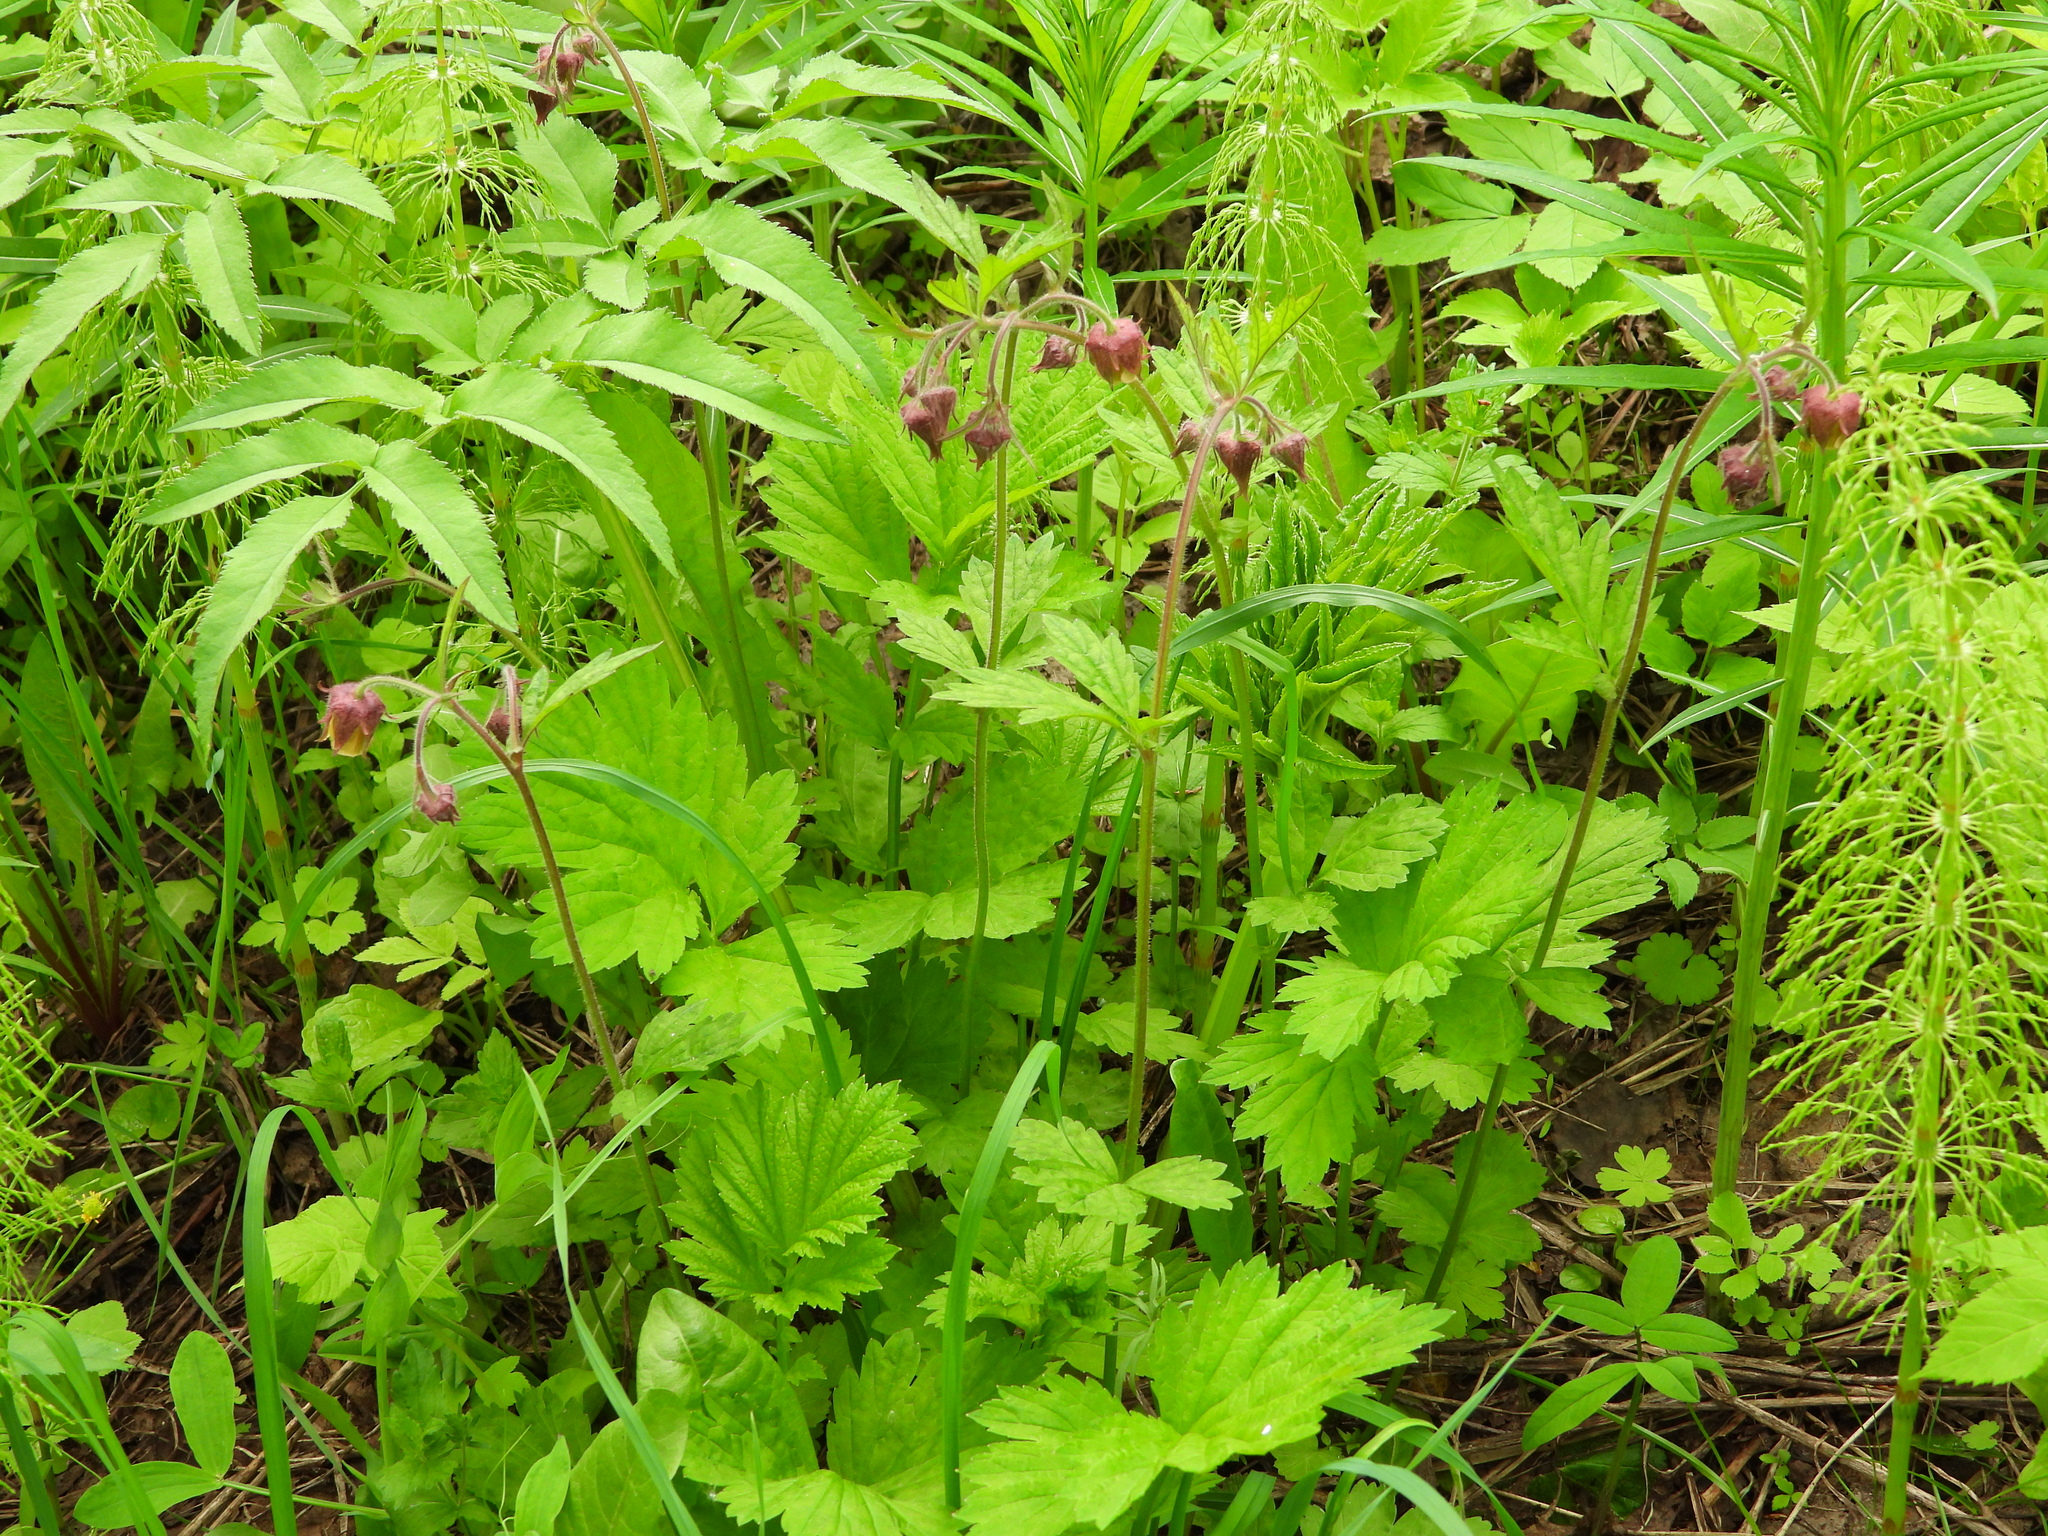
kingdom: Plantae
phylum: Tracheophyta
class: Magnoliopsida
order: Rosales
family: Rosaceae
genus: Geum
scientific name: Geum rivale
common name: Water avens
